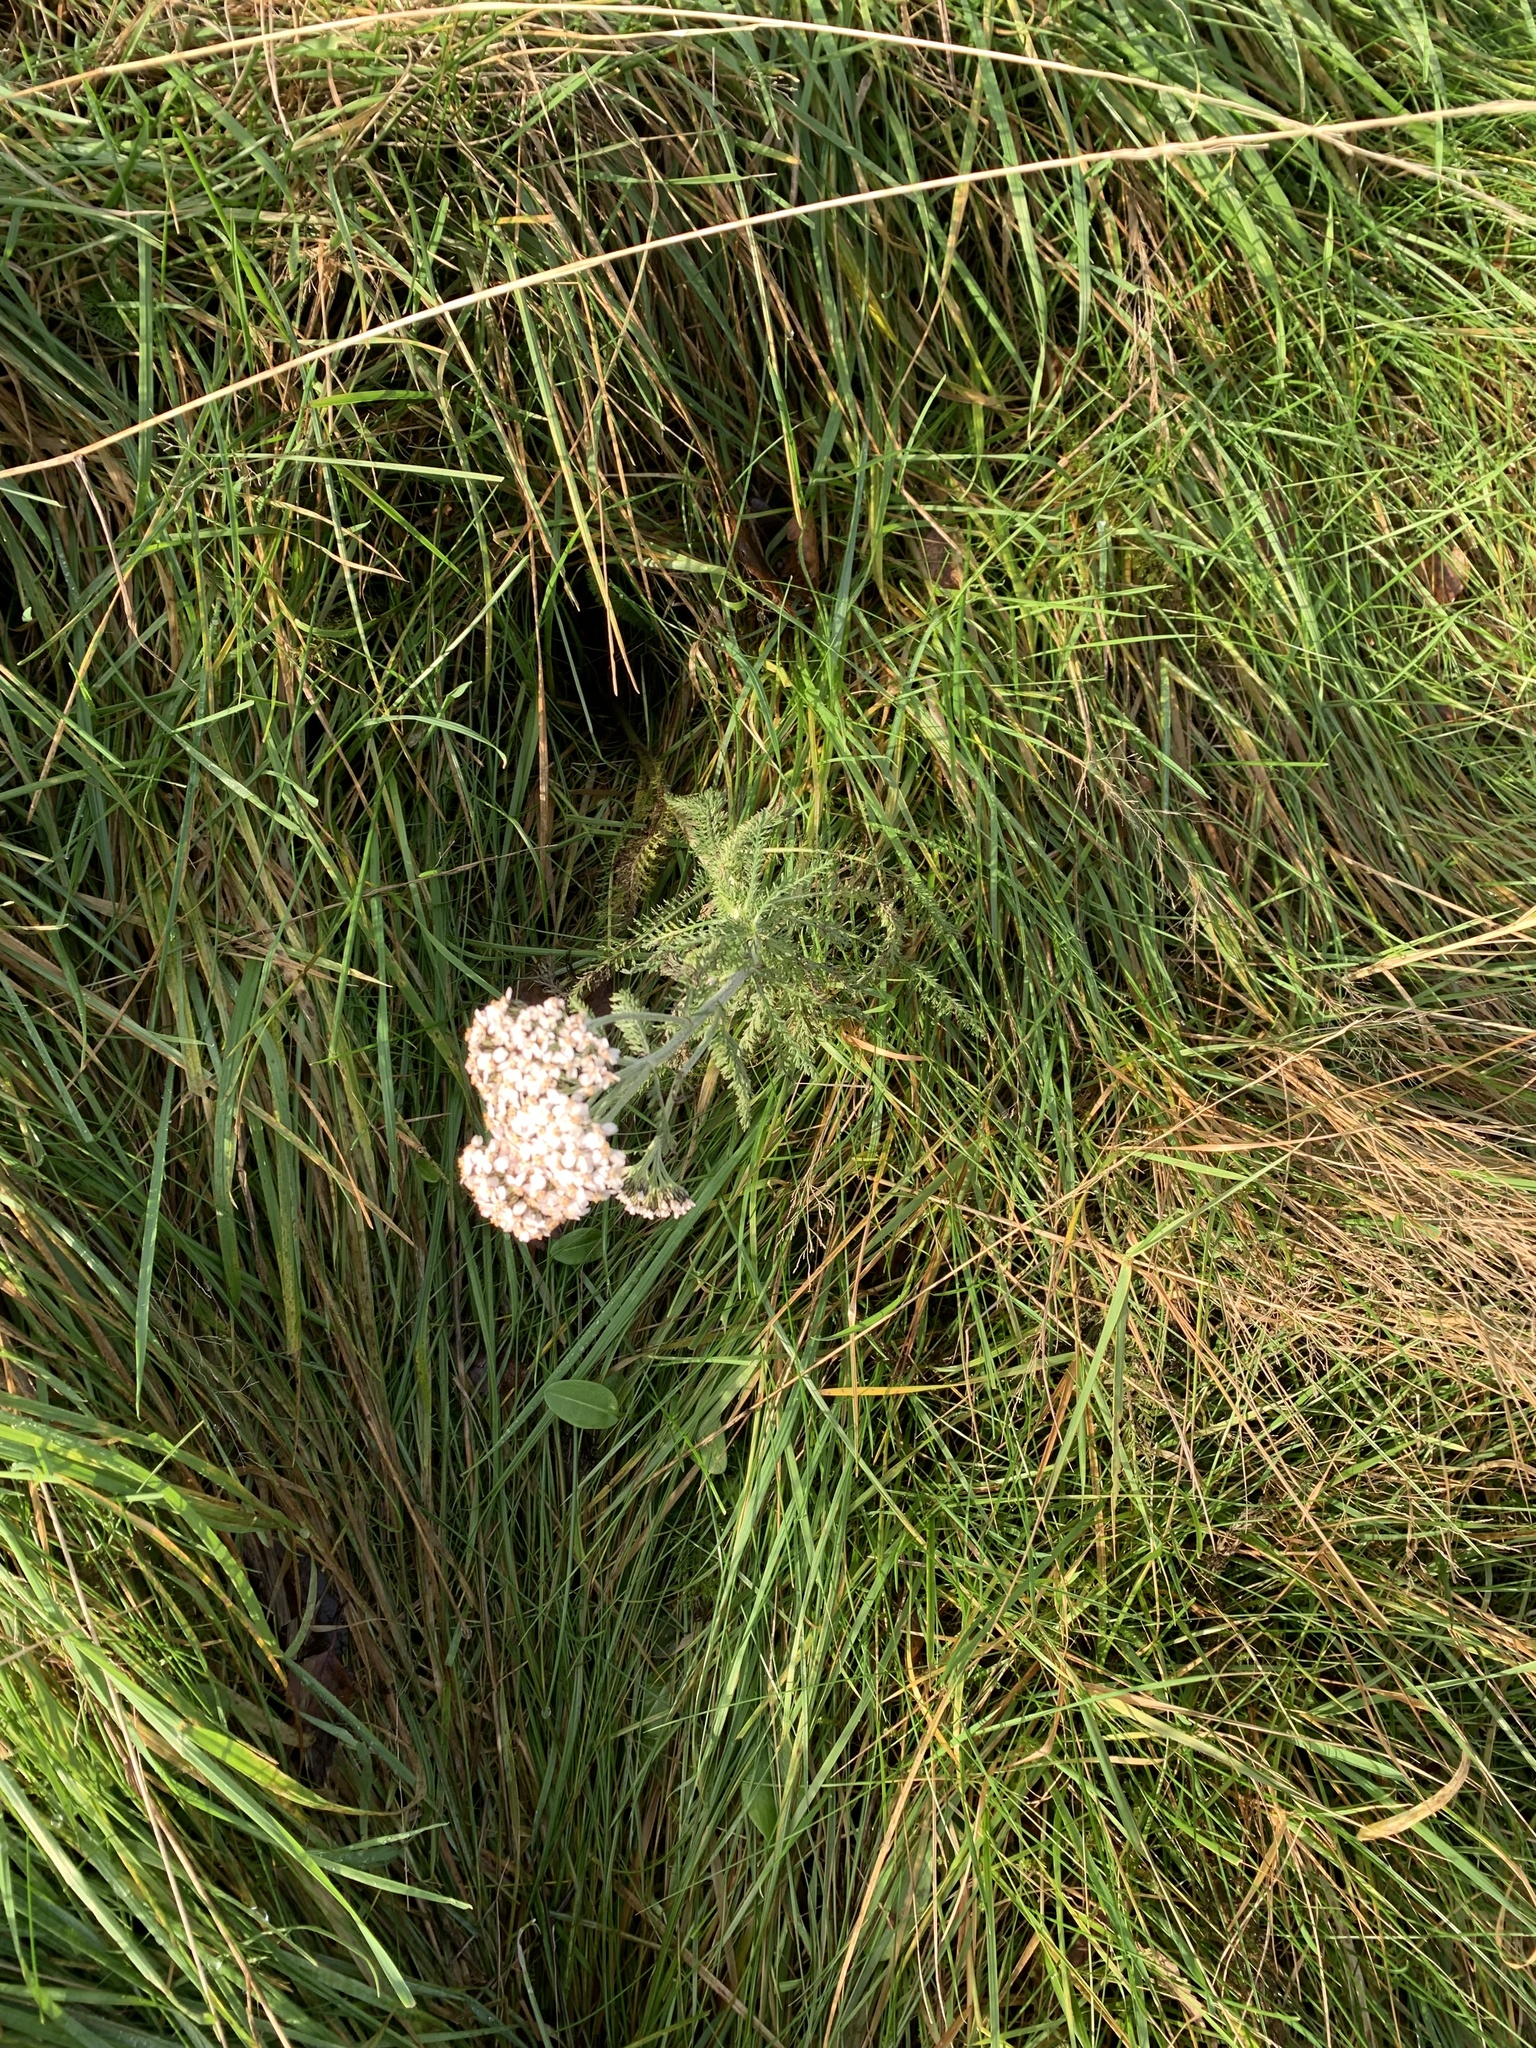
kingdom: Plantae
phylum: Tracheophyta
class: Magnoliopsida
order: Asterales
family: Asteraceae
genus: Achillea
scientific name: Achillea millefolium
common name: Yarrow
